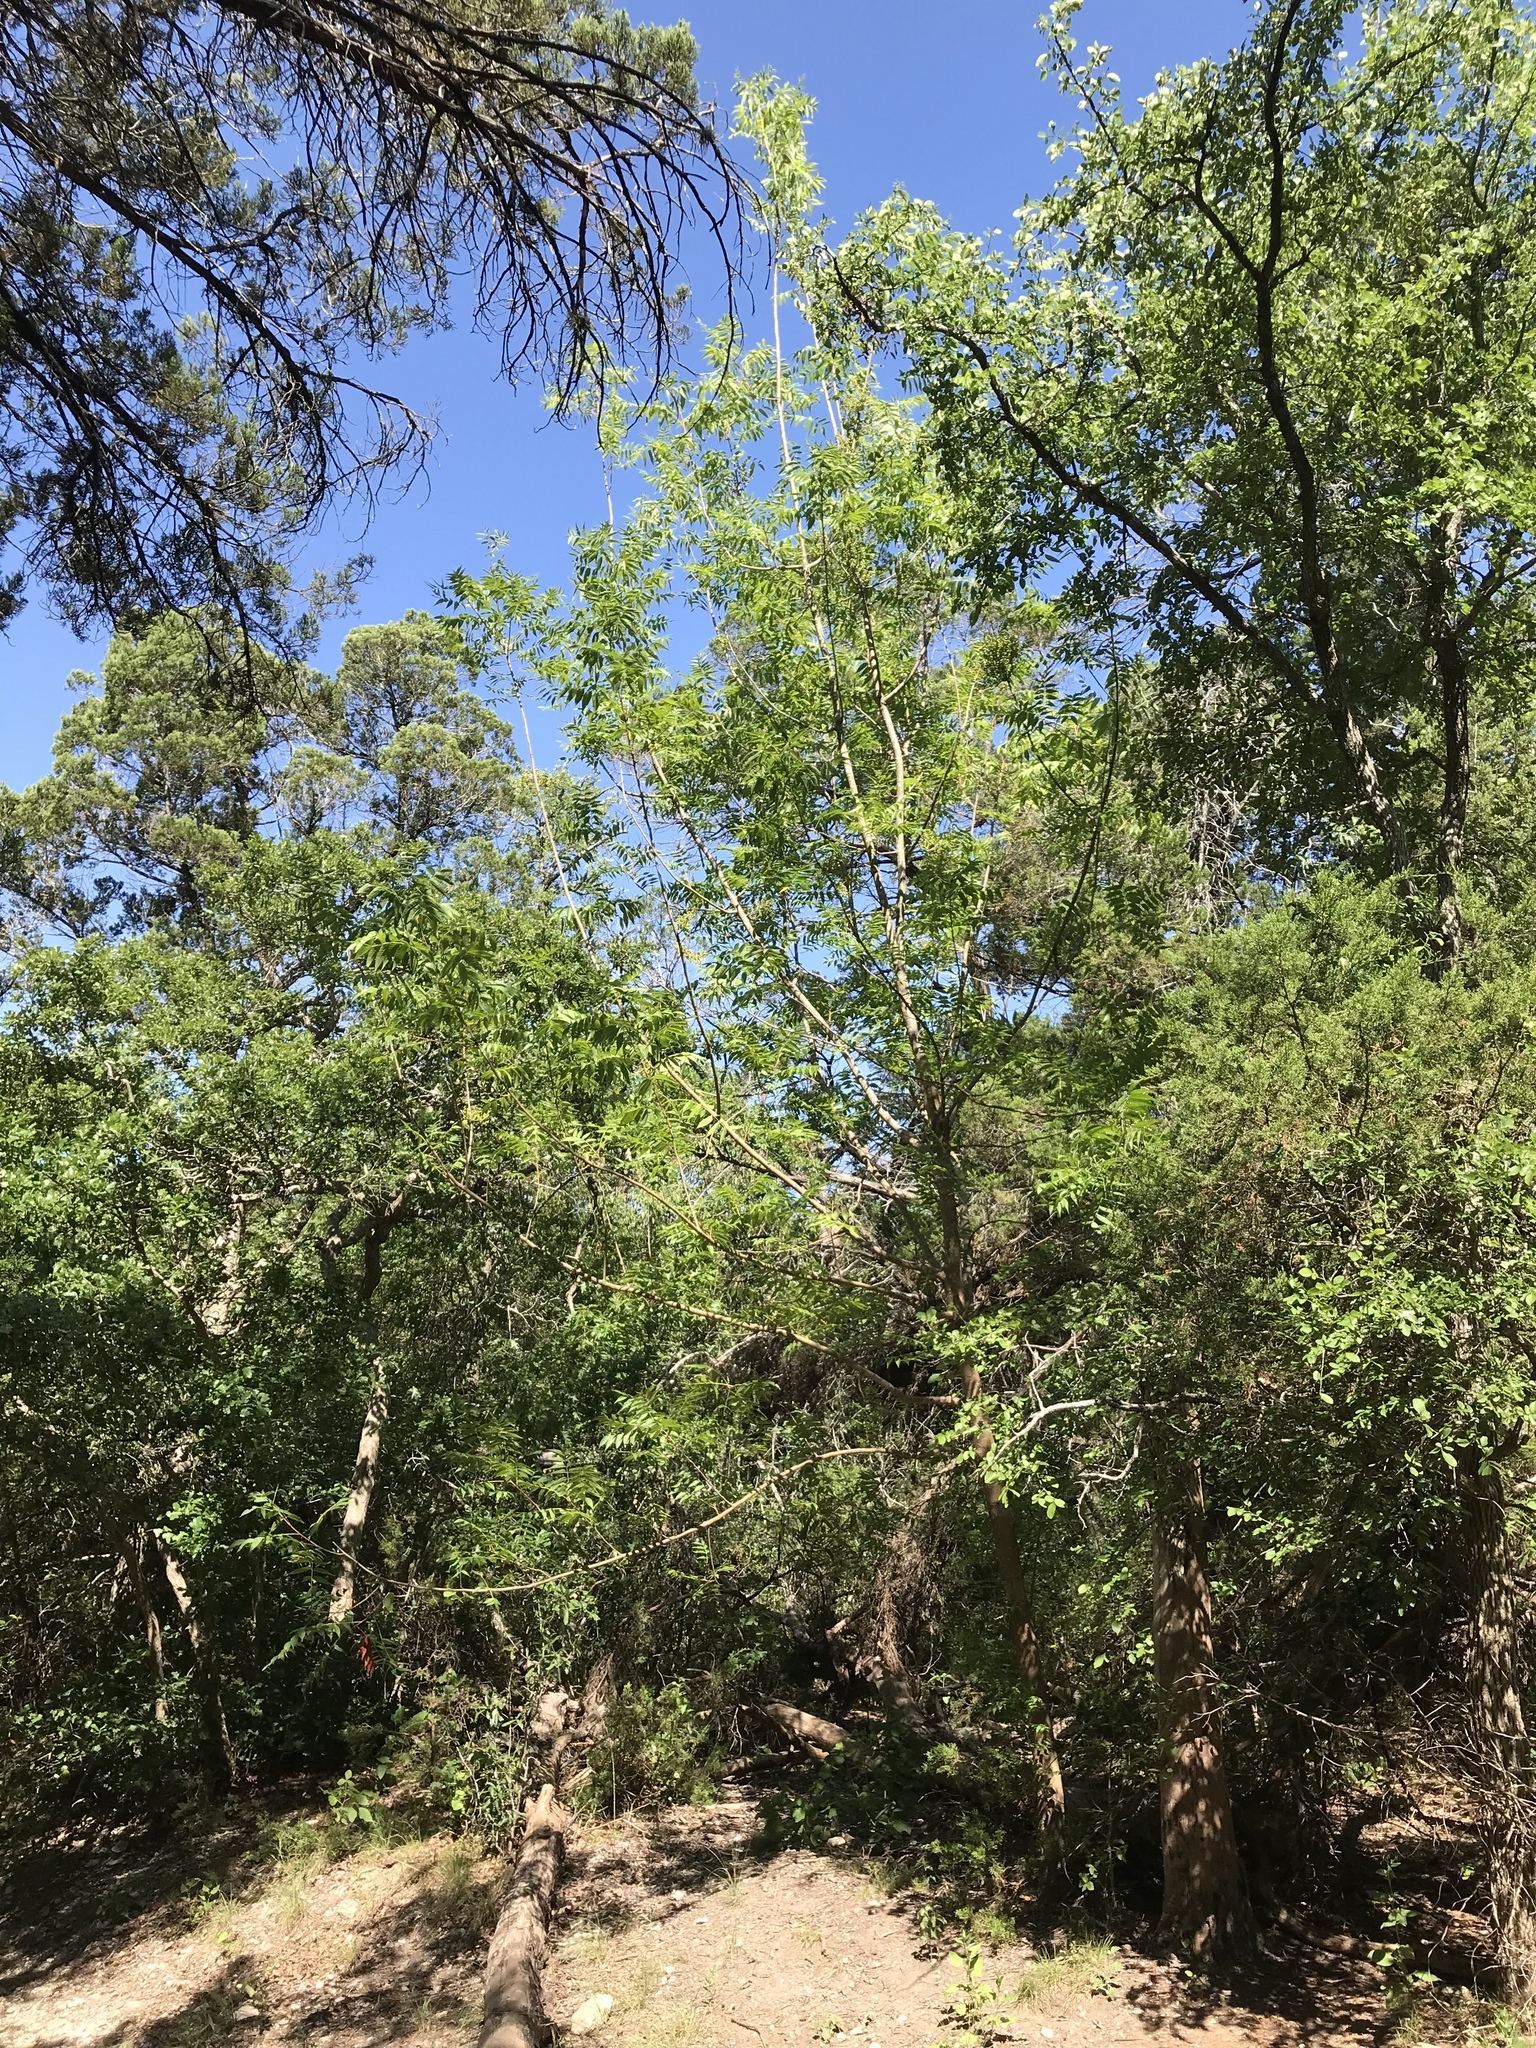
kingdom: Plantae
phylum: Tracheophyta
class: Magnoliopsida
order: Sapindales
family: Anacardiaceae
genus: Pistacia
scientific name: Pistacia chinensis
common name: Chinese pistache
